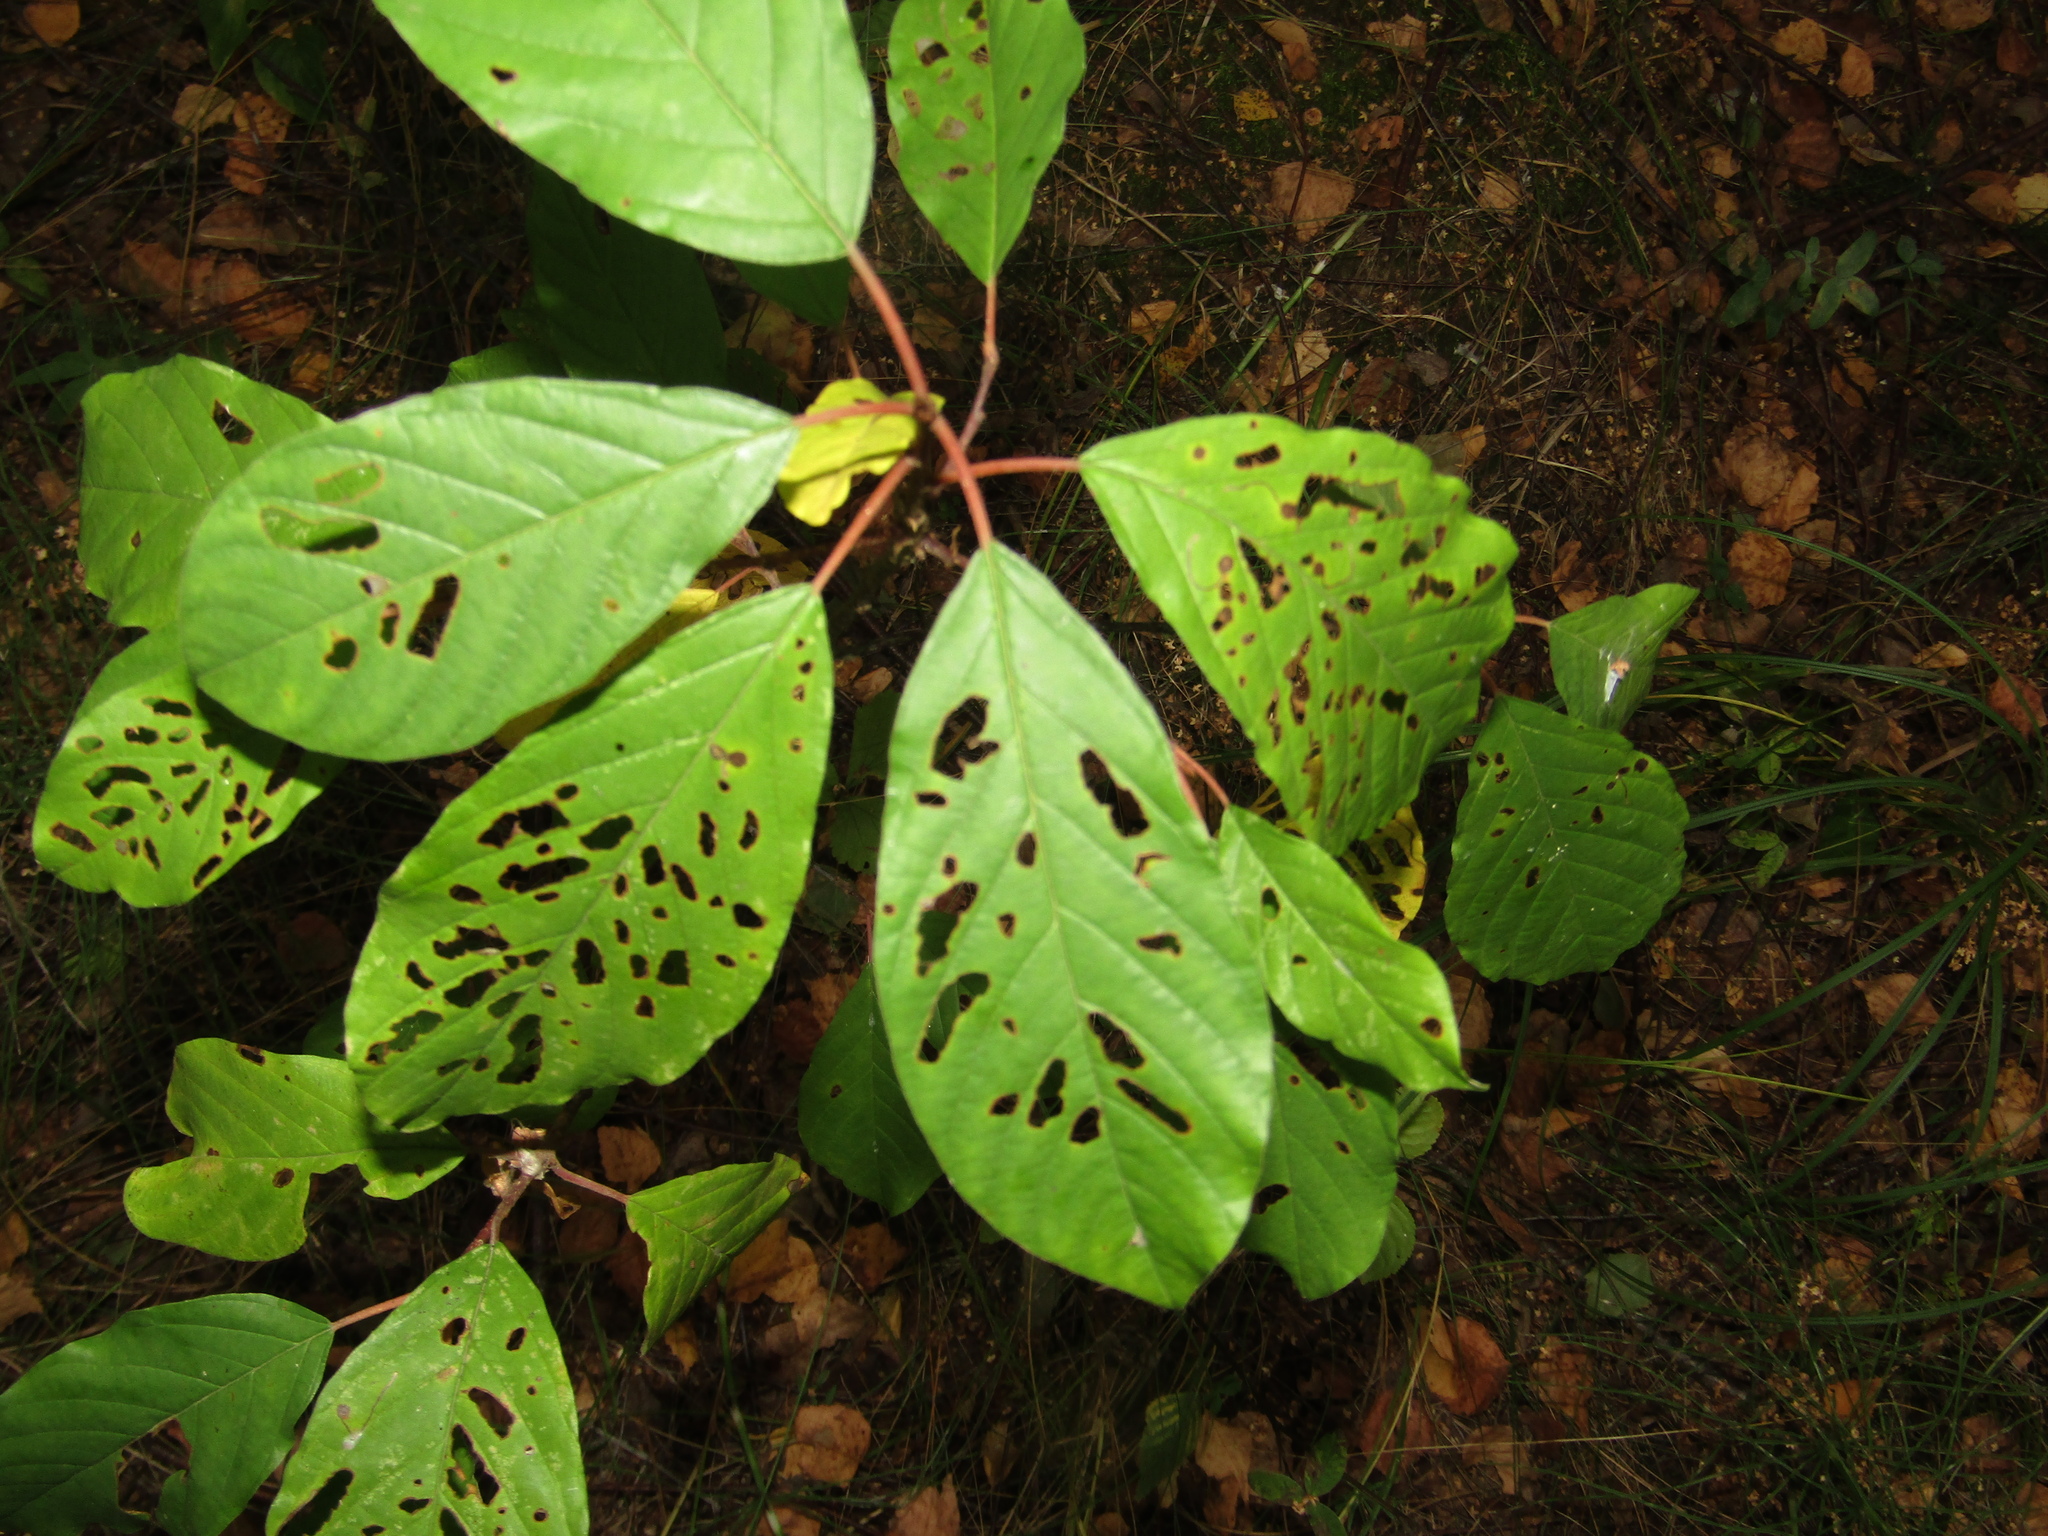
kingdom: Plantae
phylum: Tracheophyta
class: Magnoliopsida
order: Rosales
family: Rhamnaceae
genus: Frangula
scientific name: Frangula alnus
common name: Alder buckthorn
